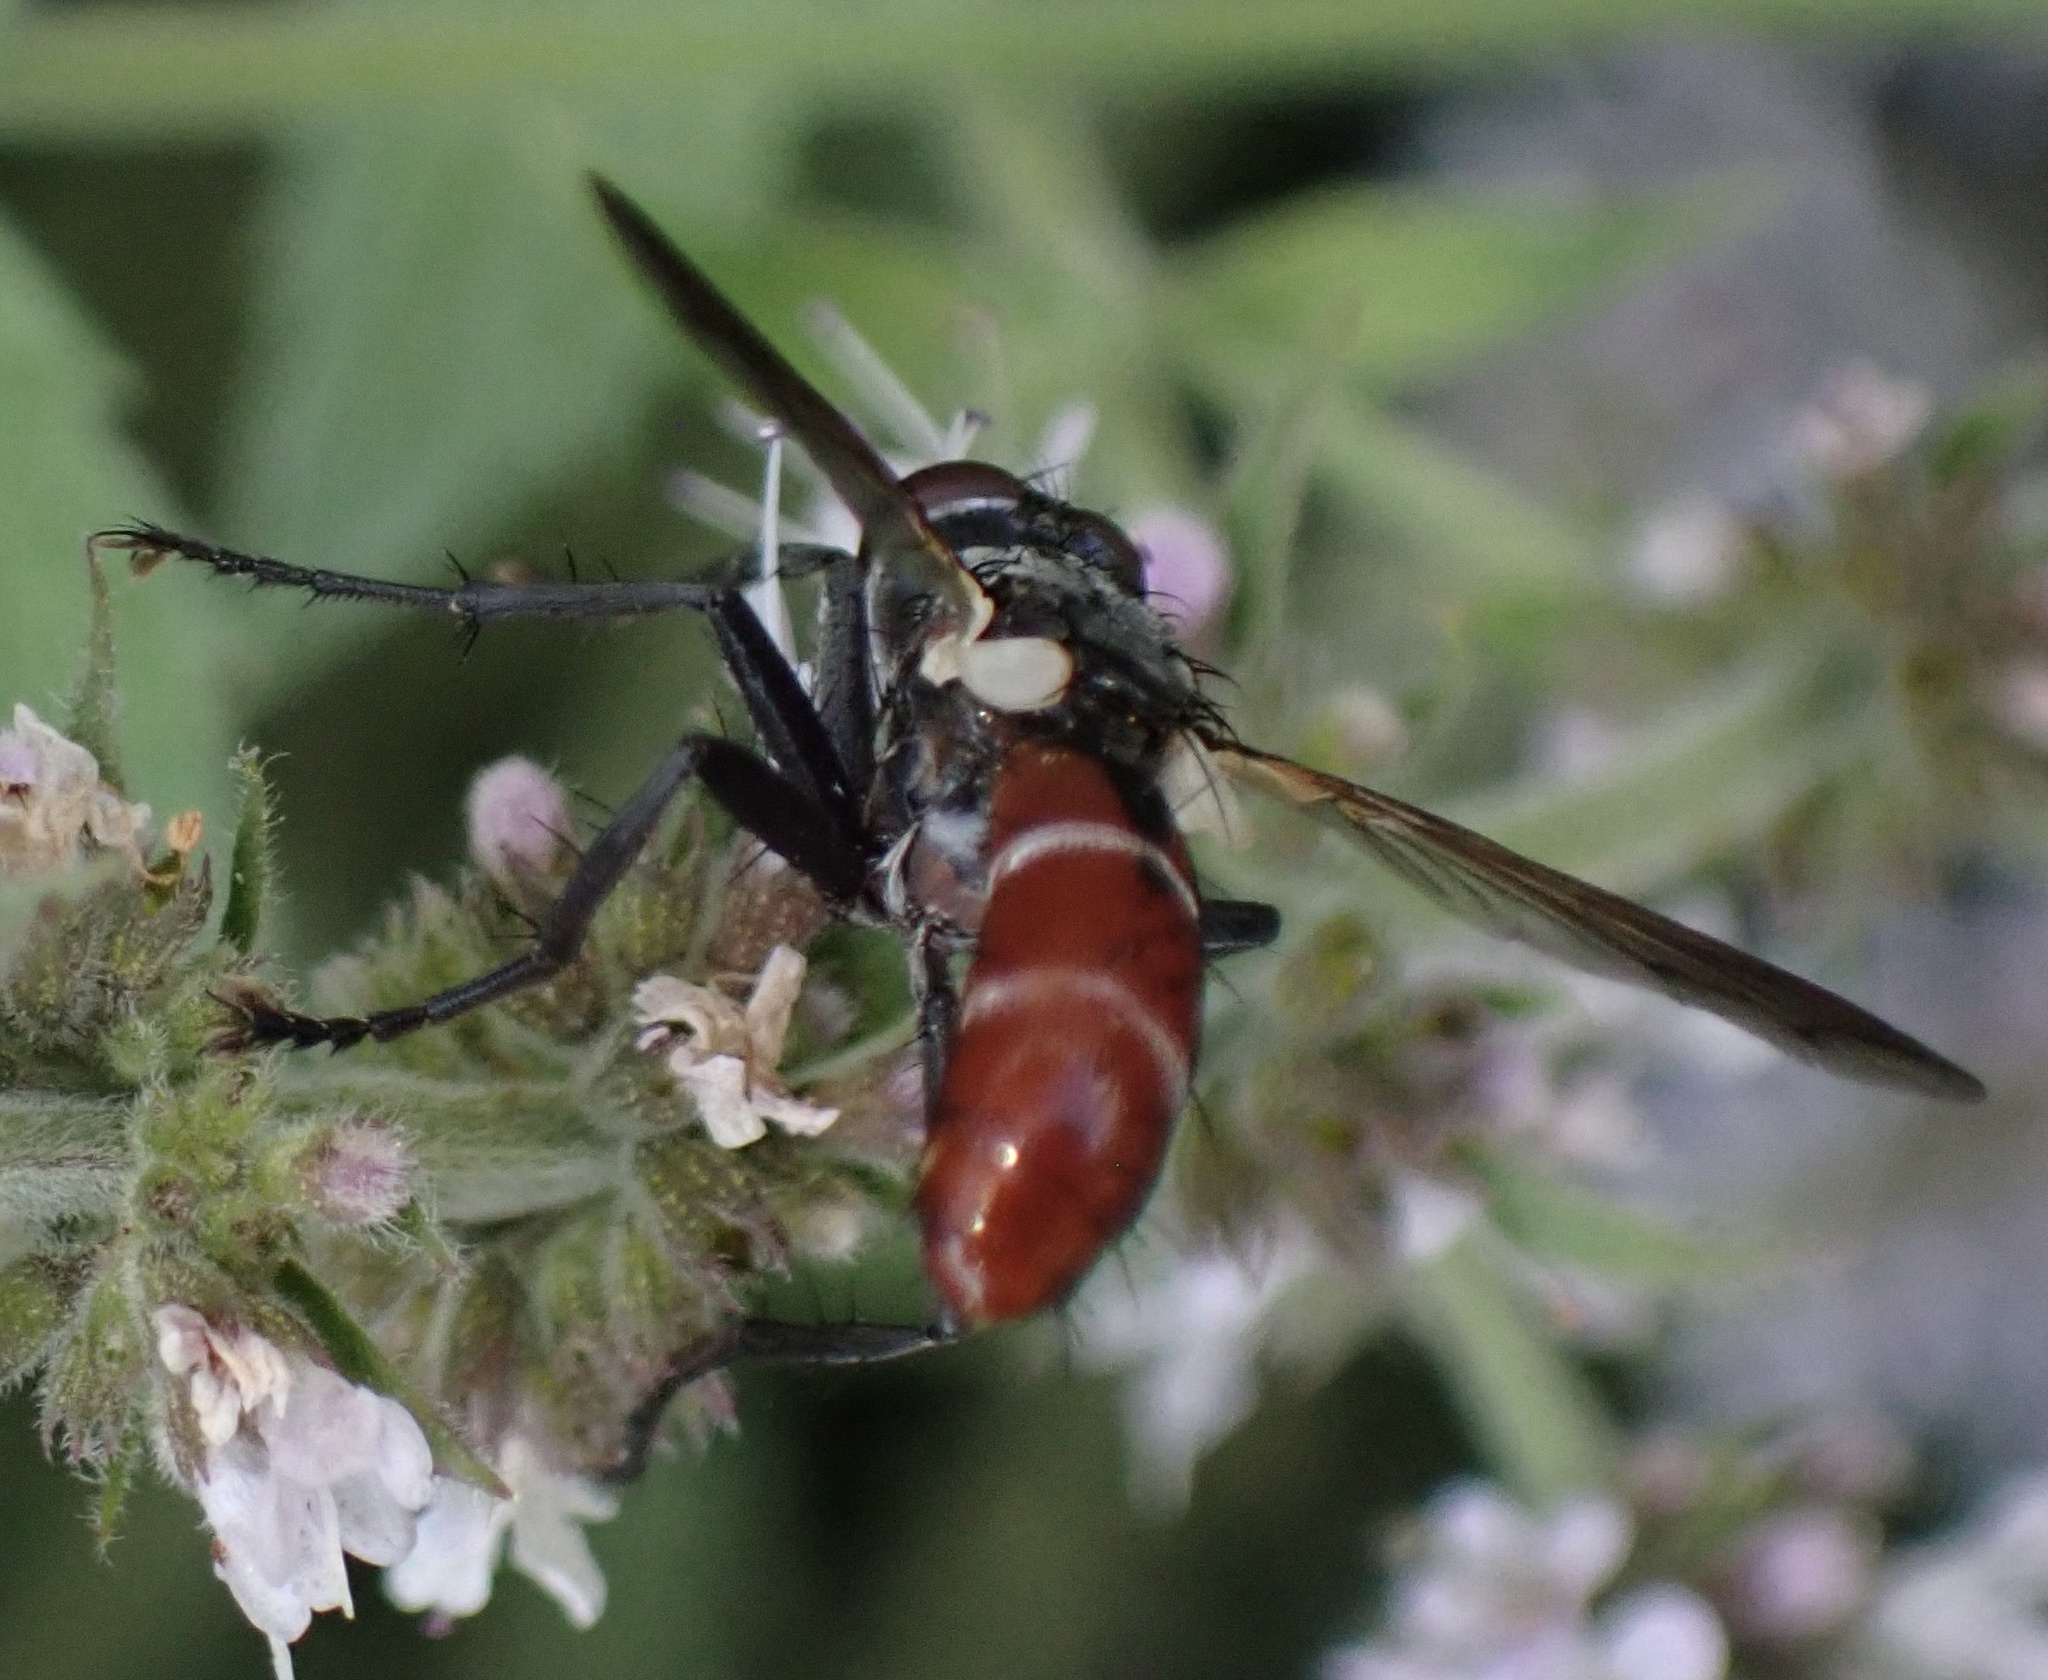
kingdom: Animalia
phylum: Arthropoda
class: Insecta
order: Diptera
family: Tachinidae
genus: Cylindromyia
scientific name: Cylindromyia bicolor
